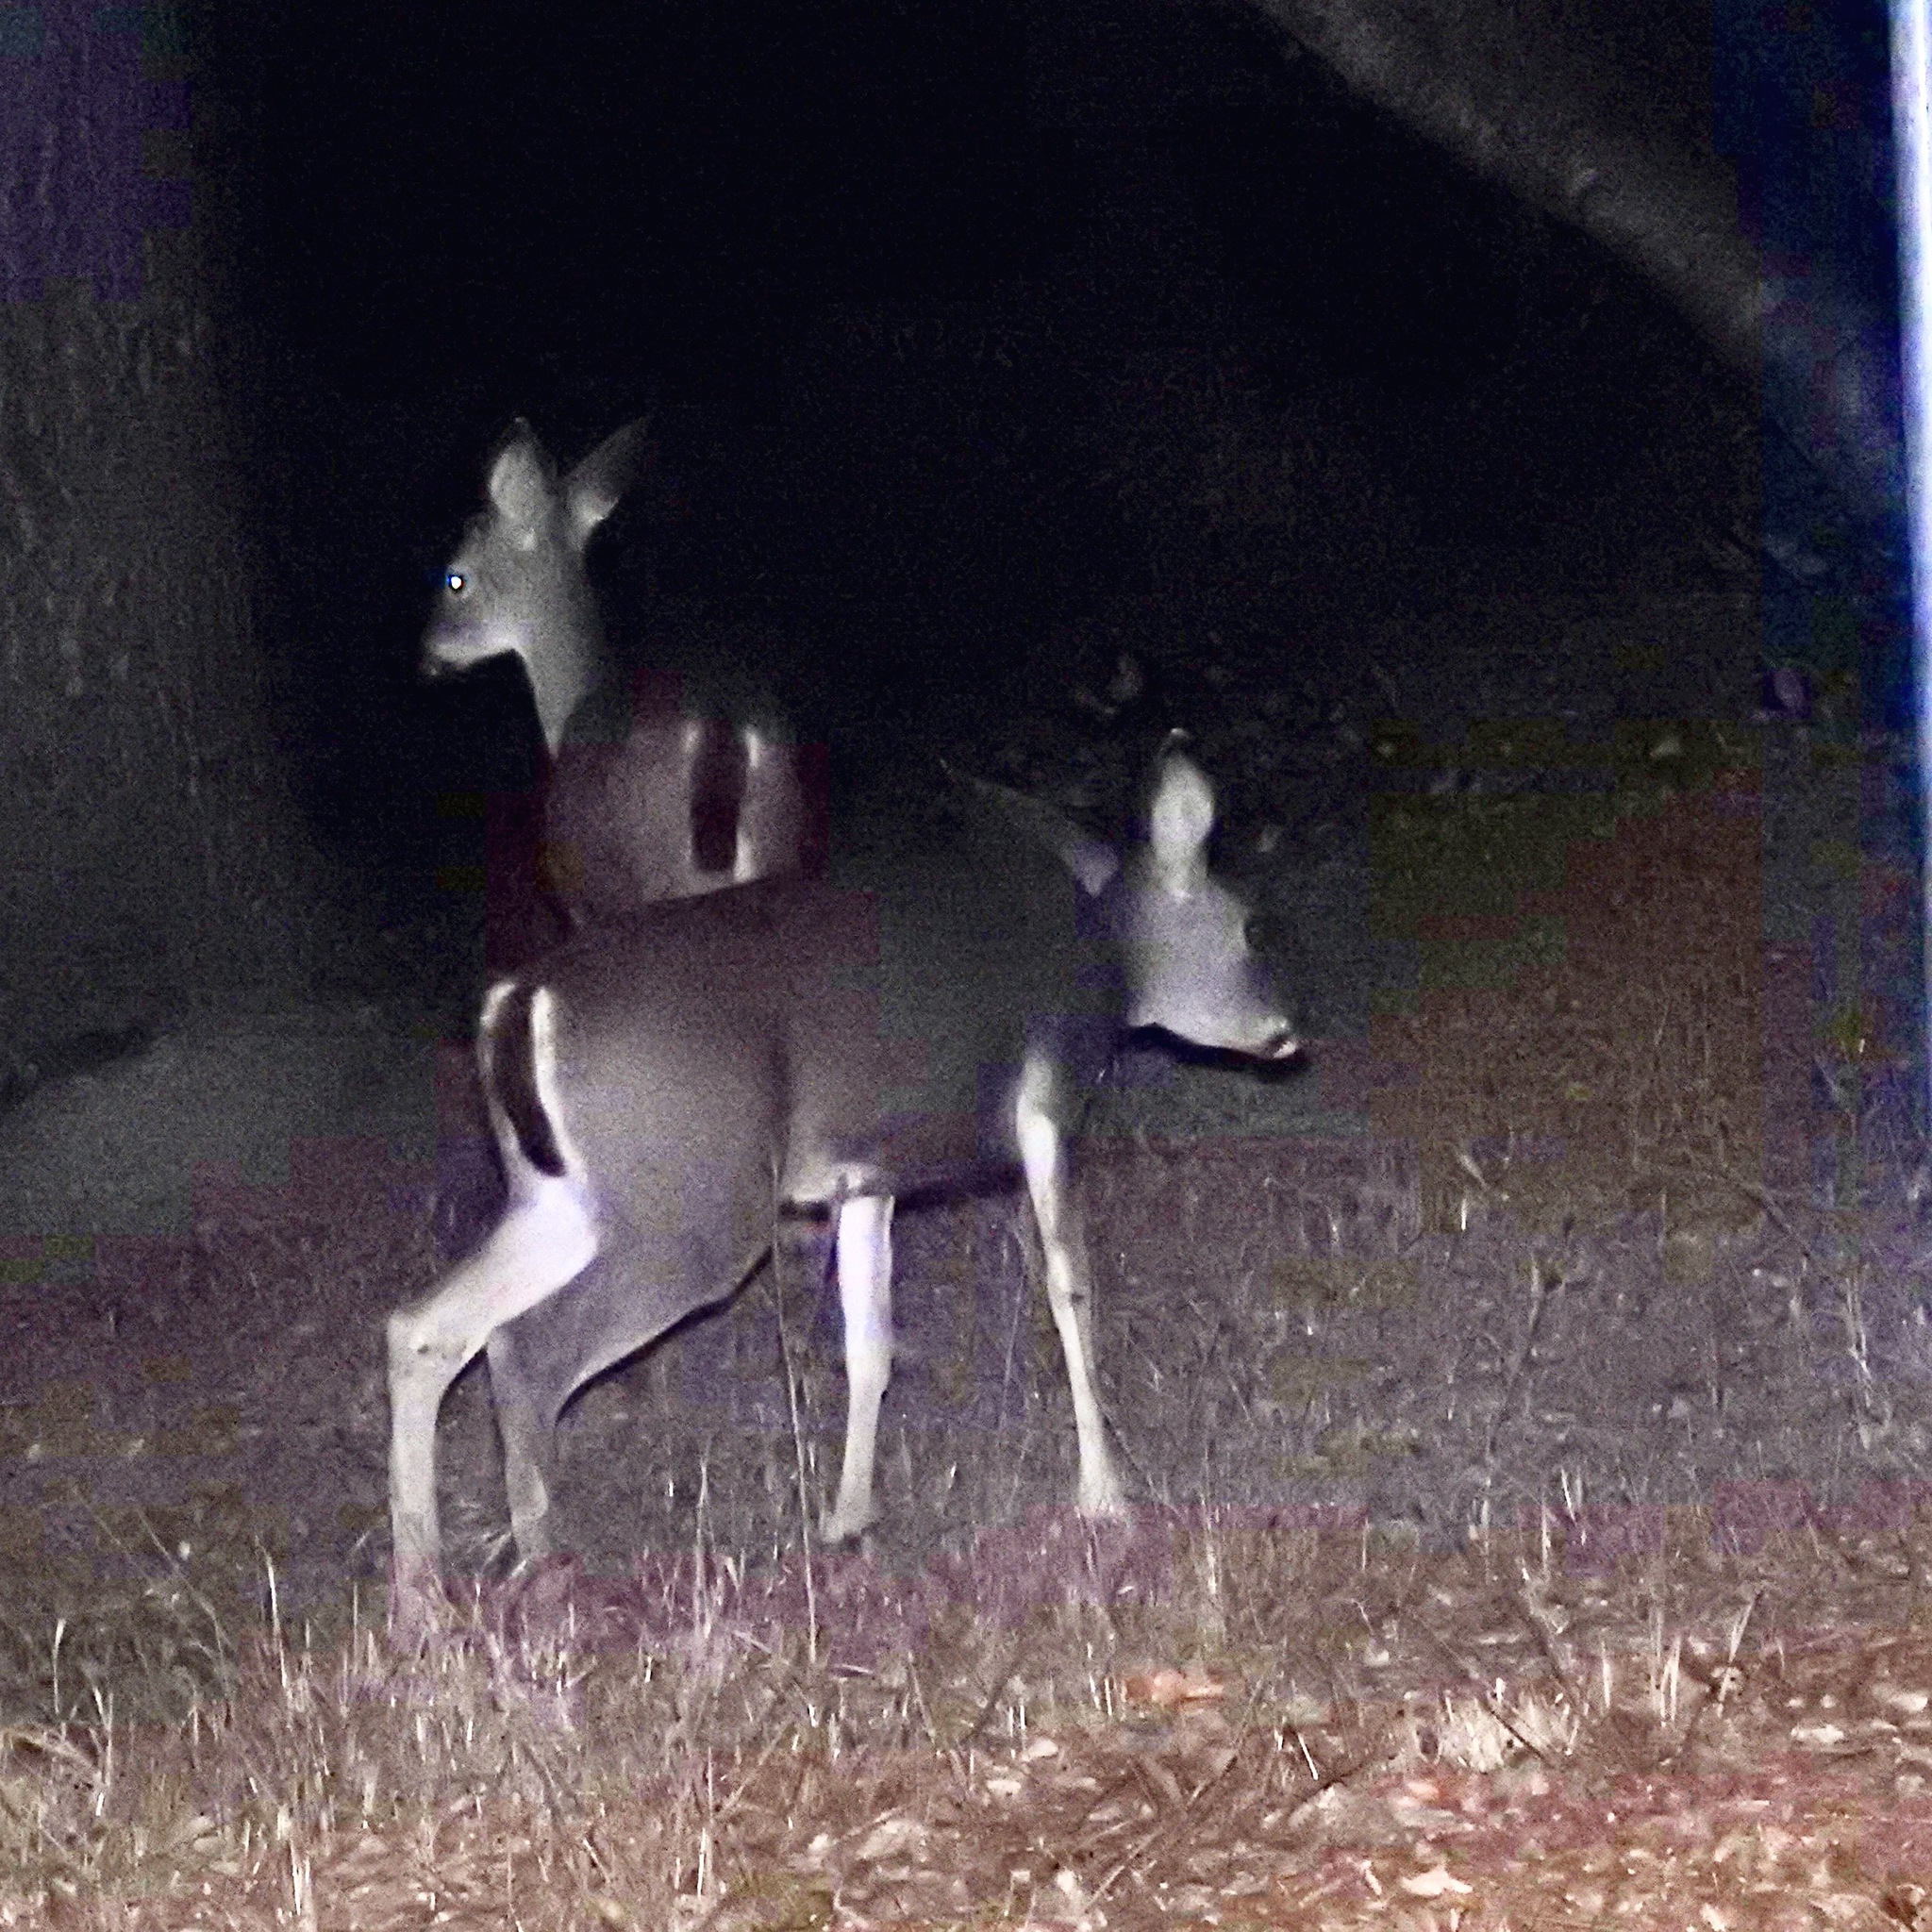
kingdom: Animalia
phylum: Chordata
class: Mammalia
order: Artiodactyla
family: Cervidae
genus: Odocoileus
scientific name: Odocoileus hemionus
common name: Mule deer
